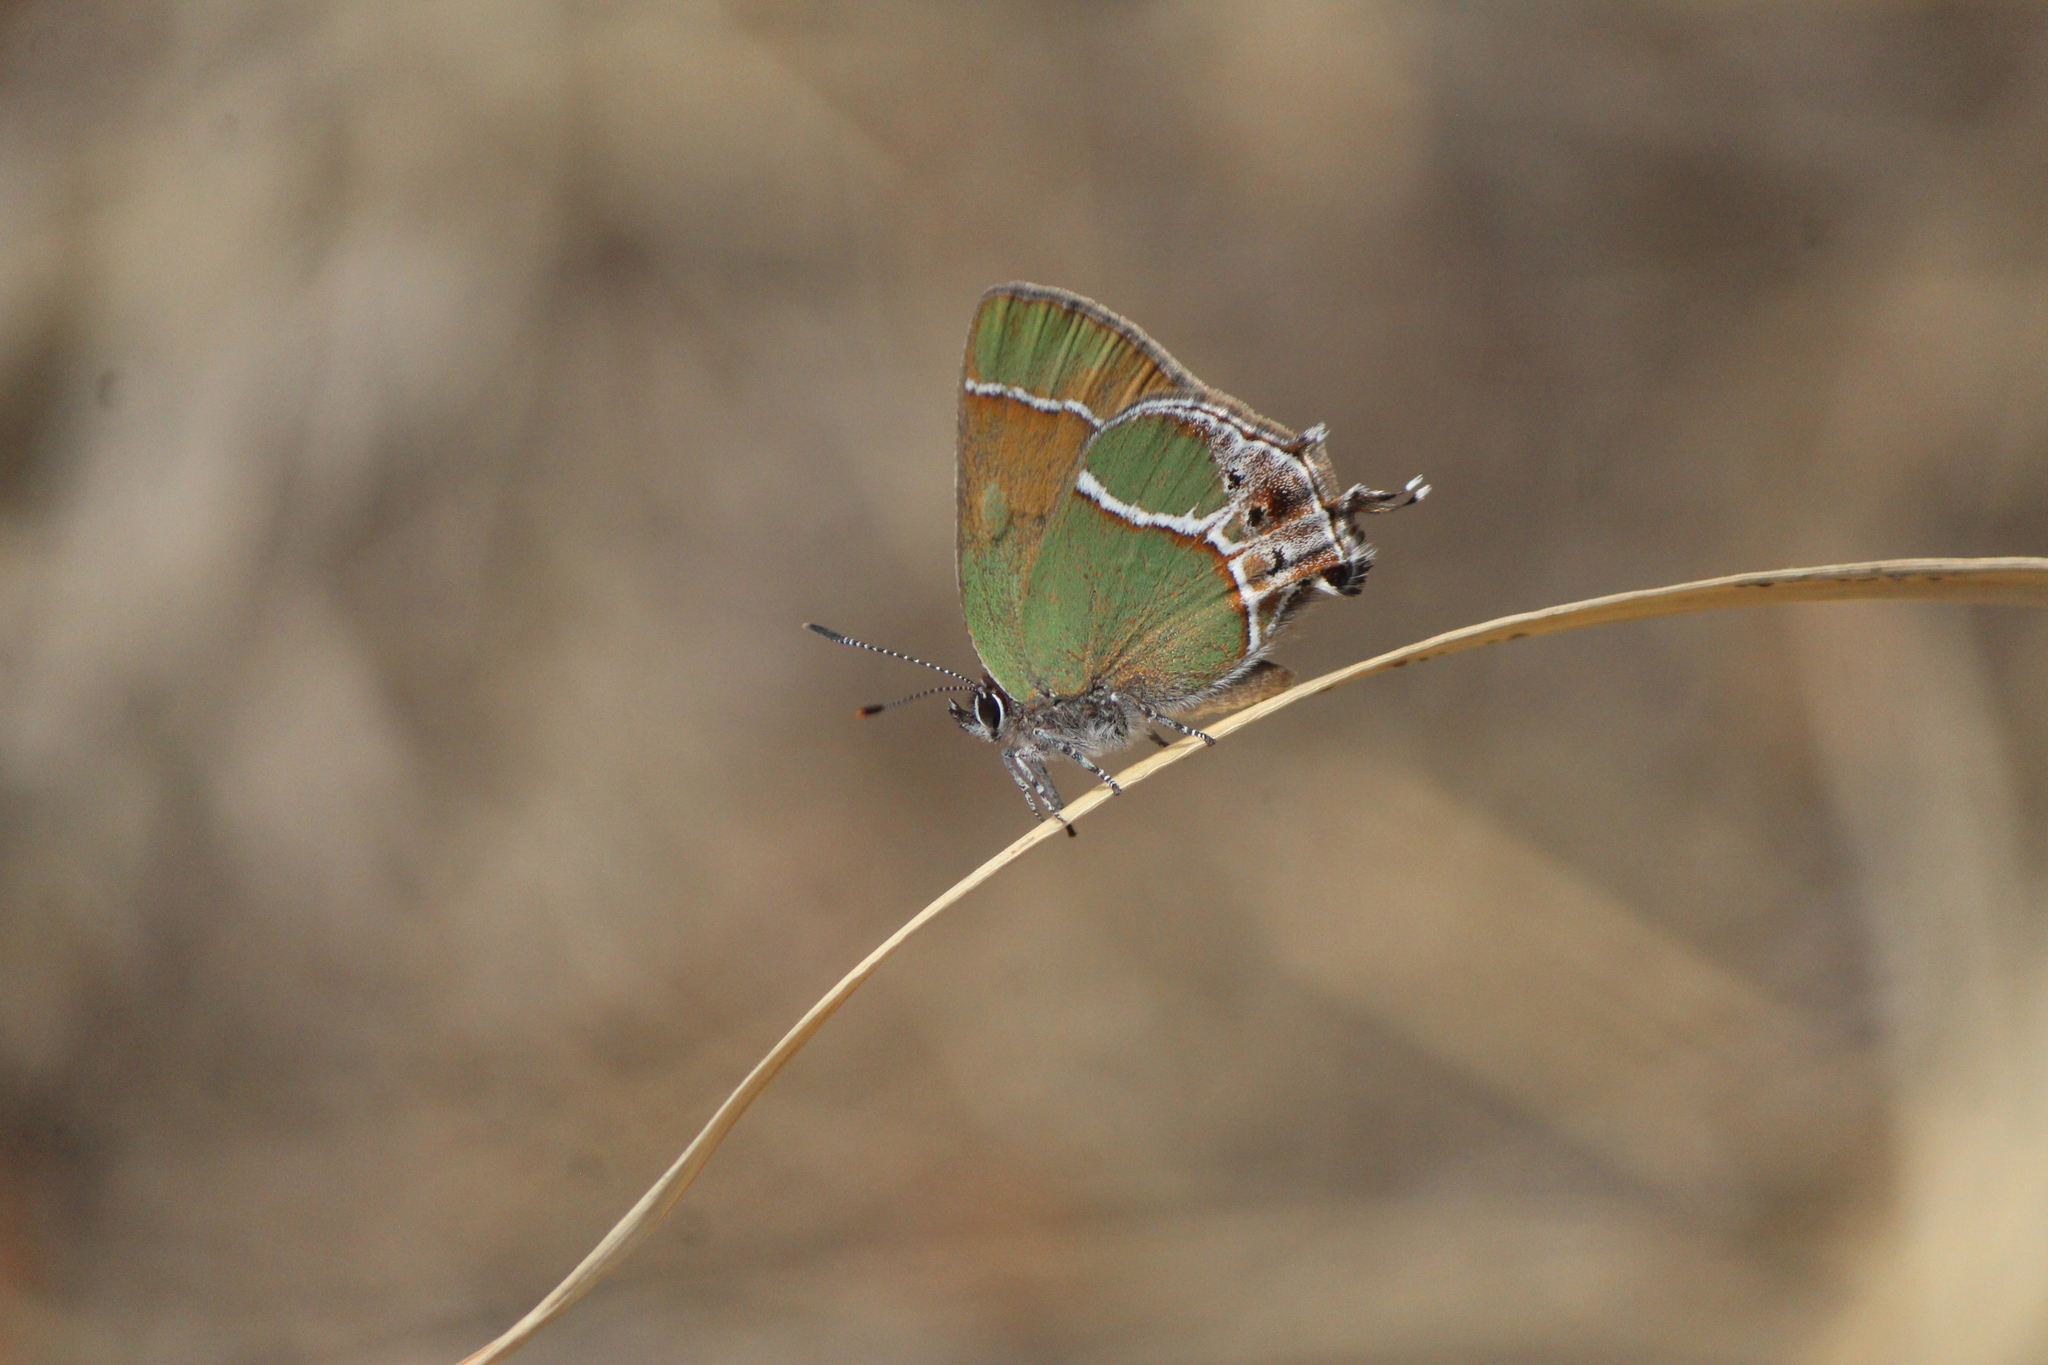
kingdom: Animalia
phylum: Arthropoda
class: Insecta
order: Lepidoptera
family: Lycaenidae
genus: Xamia
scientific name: Xamia xami
